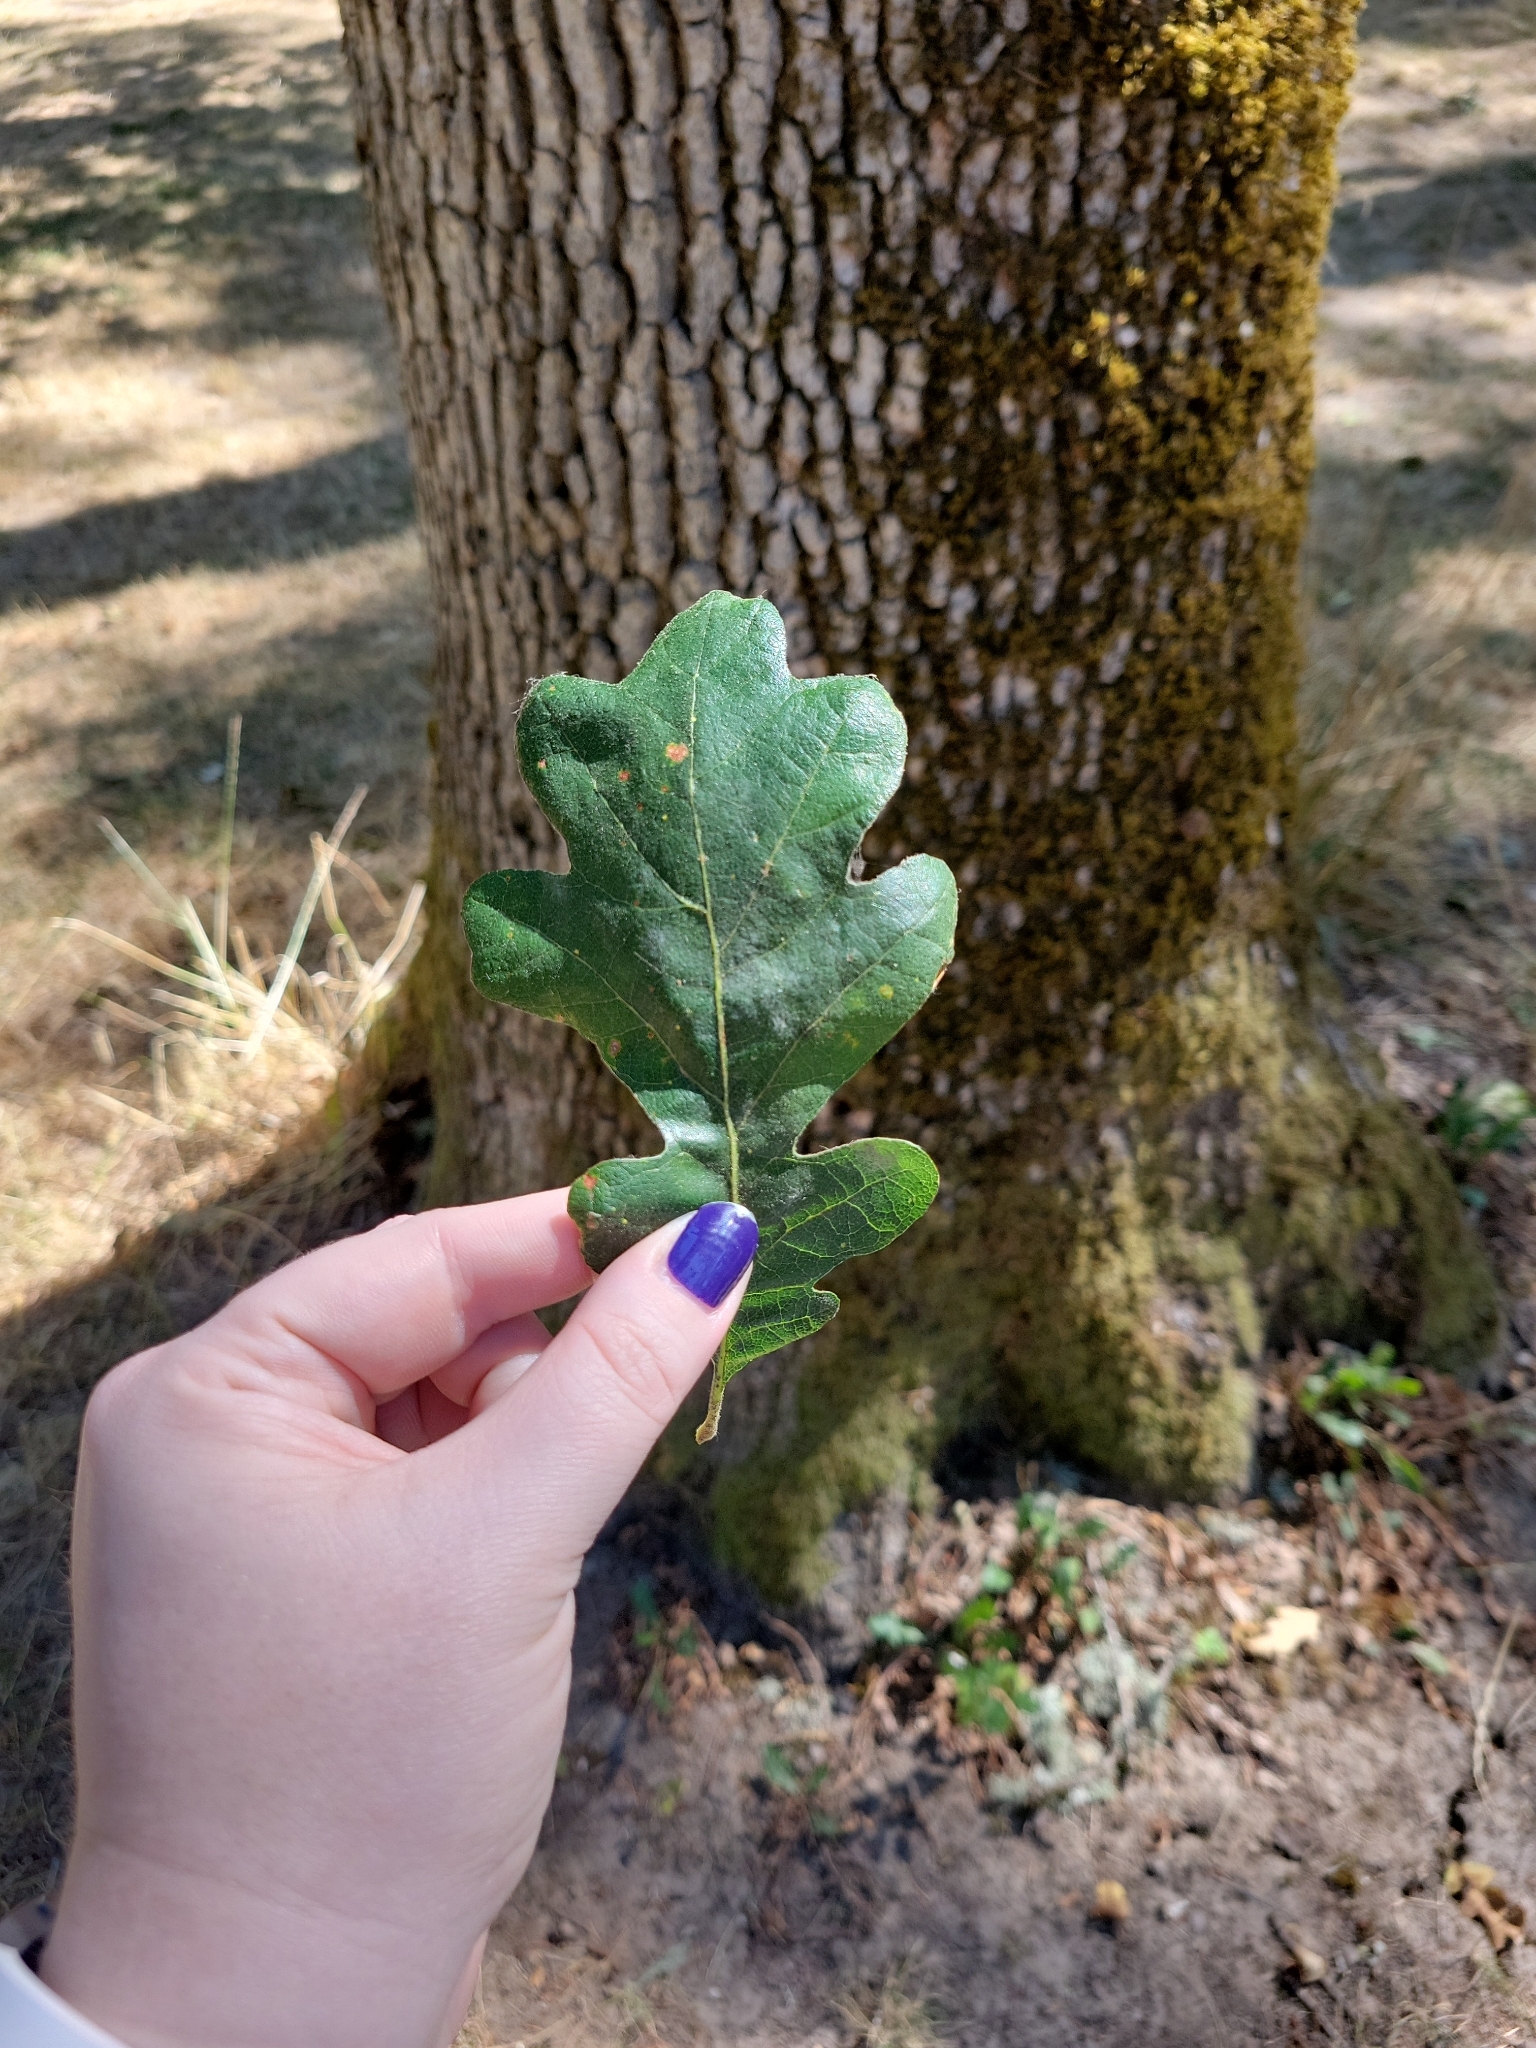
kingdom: Plantae
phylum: Tracheophyta
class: Magnoliopsida
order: Fagales
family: Fagaceae
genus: Quercus
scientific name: Quercus garryana
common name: Garry oak
